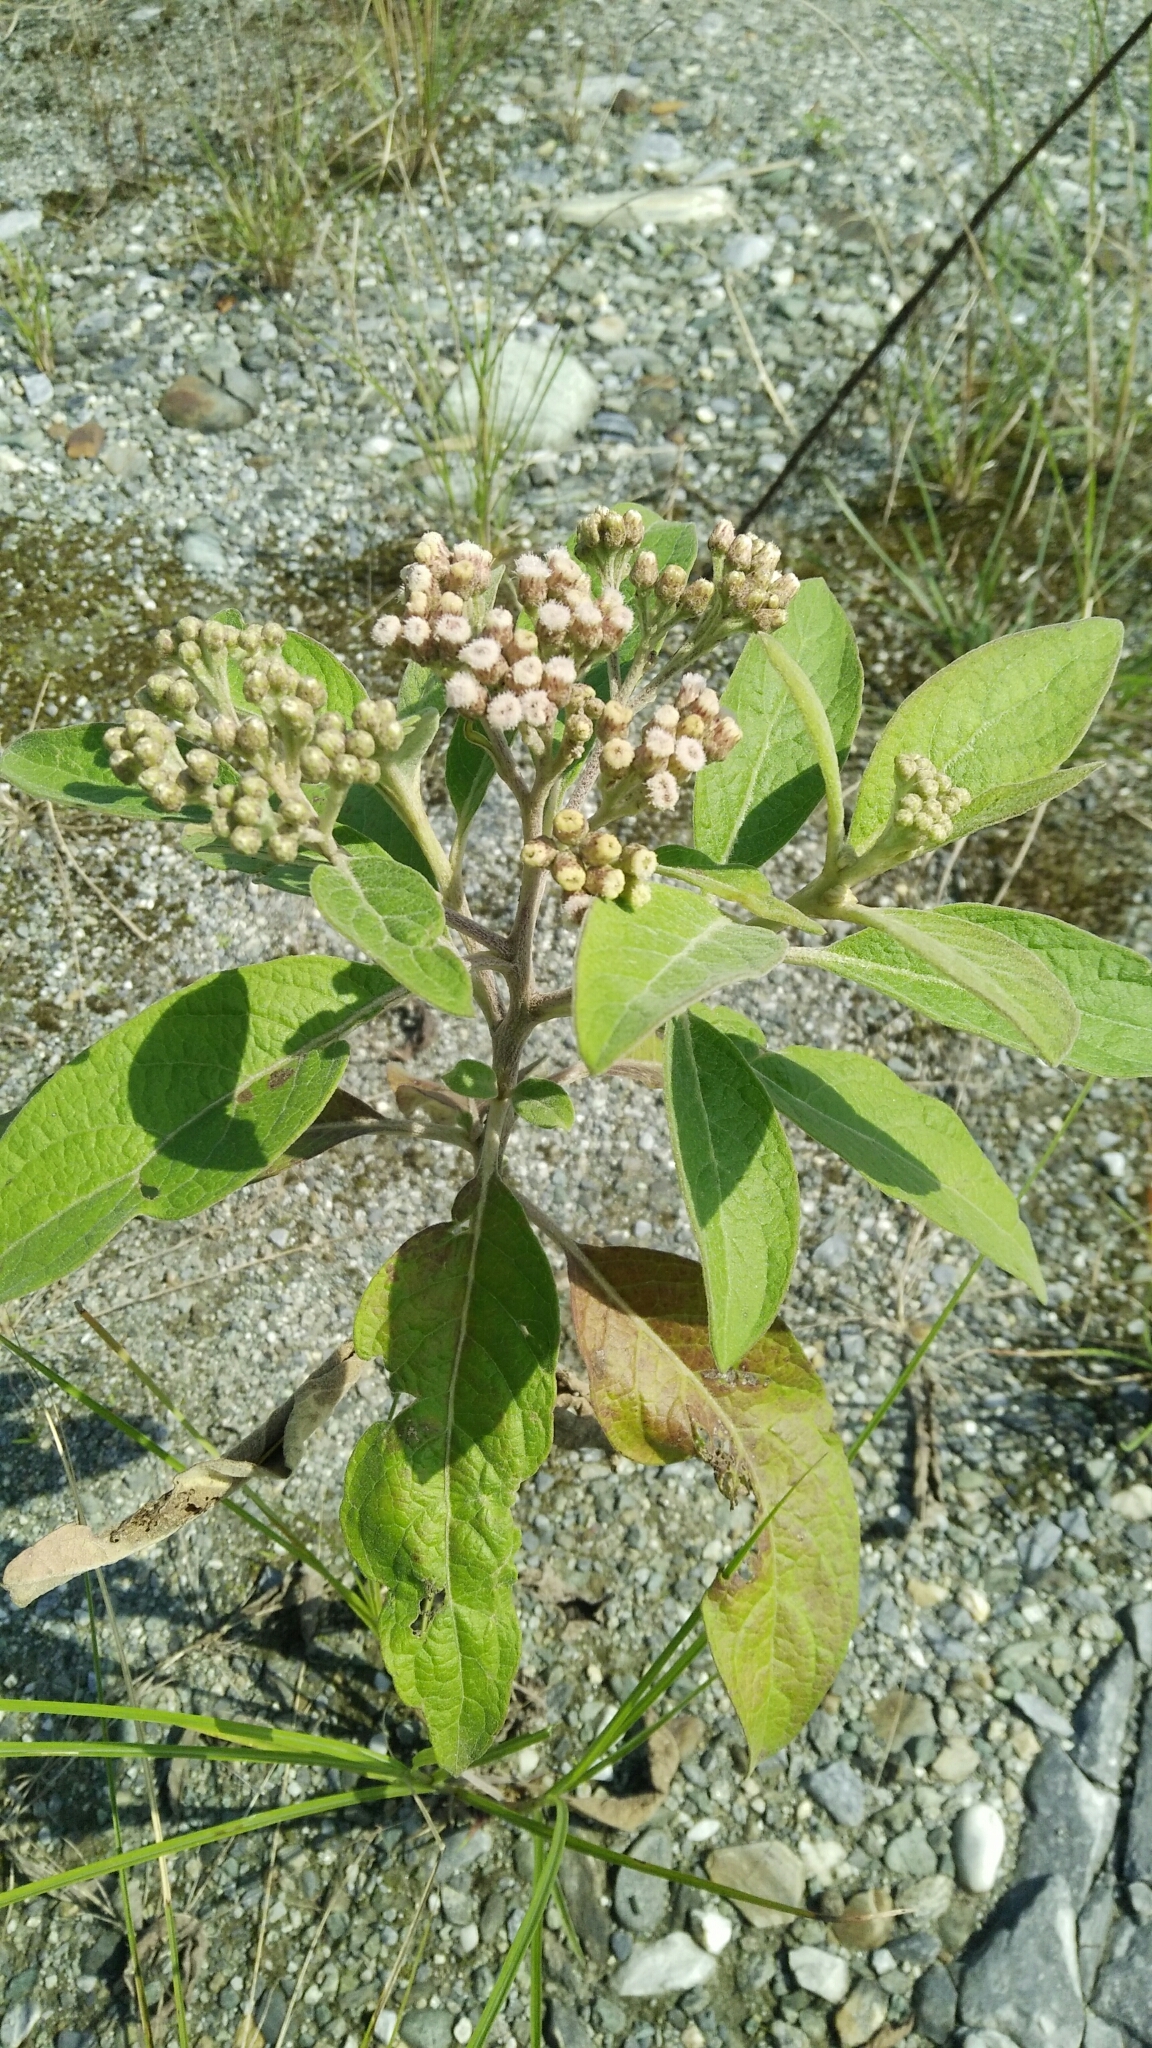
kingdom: Plantae
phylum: Tracheophyta
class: Magnoliopsida
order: Asterales
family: Asteraceae
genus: Pluchea
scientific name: Pluchea carolinensis
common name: Marsh fleabane
